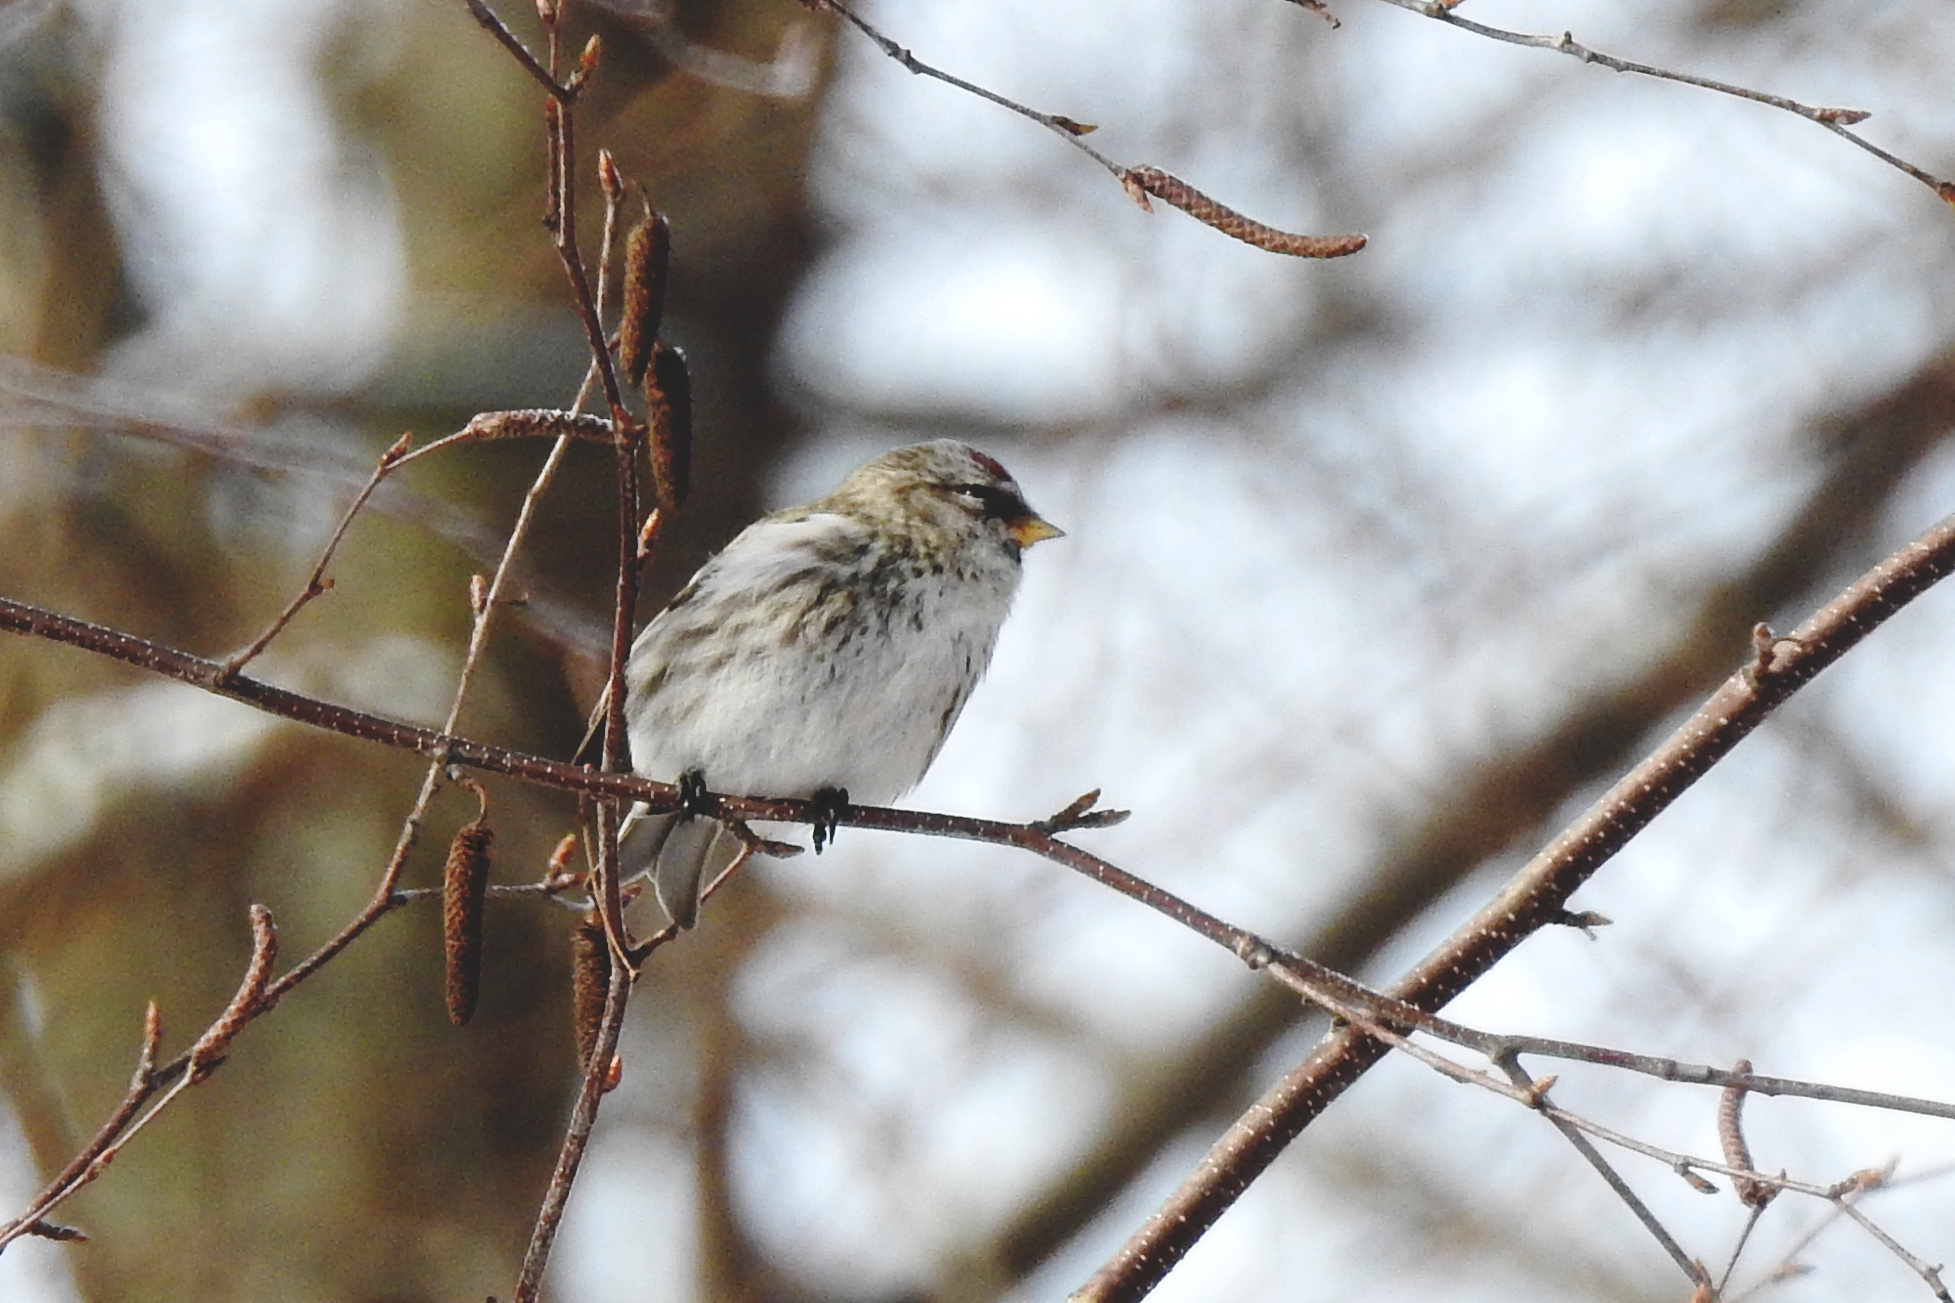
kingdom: Animalia
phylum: Chordata
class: Aves
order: Passeriformes
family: Fringillidae
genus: Acanthis
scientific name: Acanthis flammea
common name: Common redpoll
